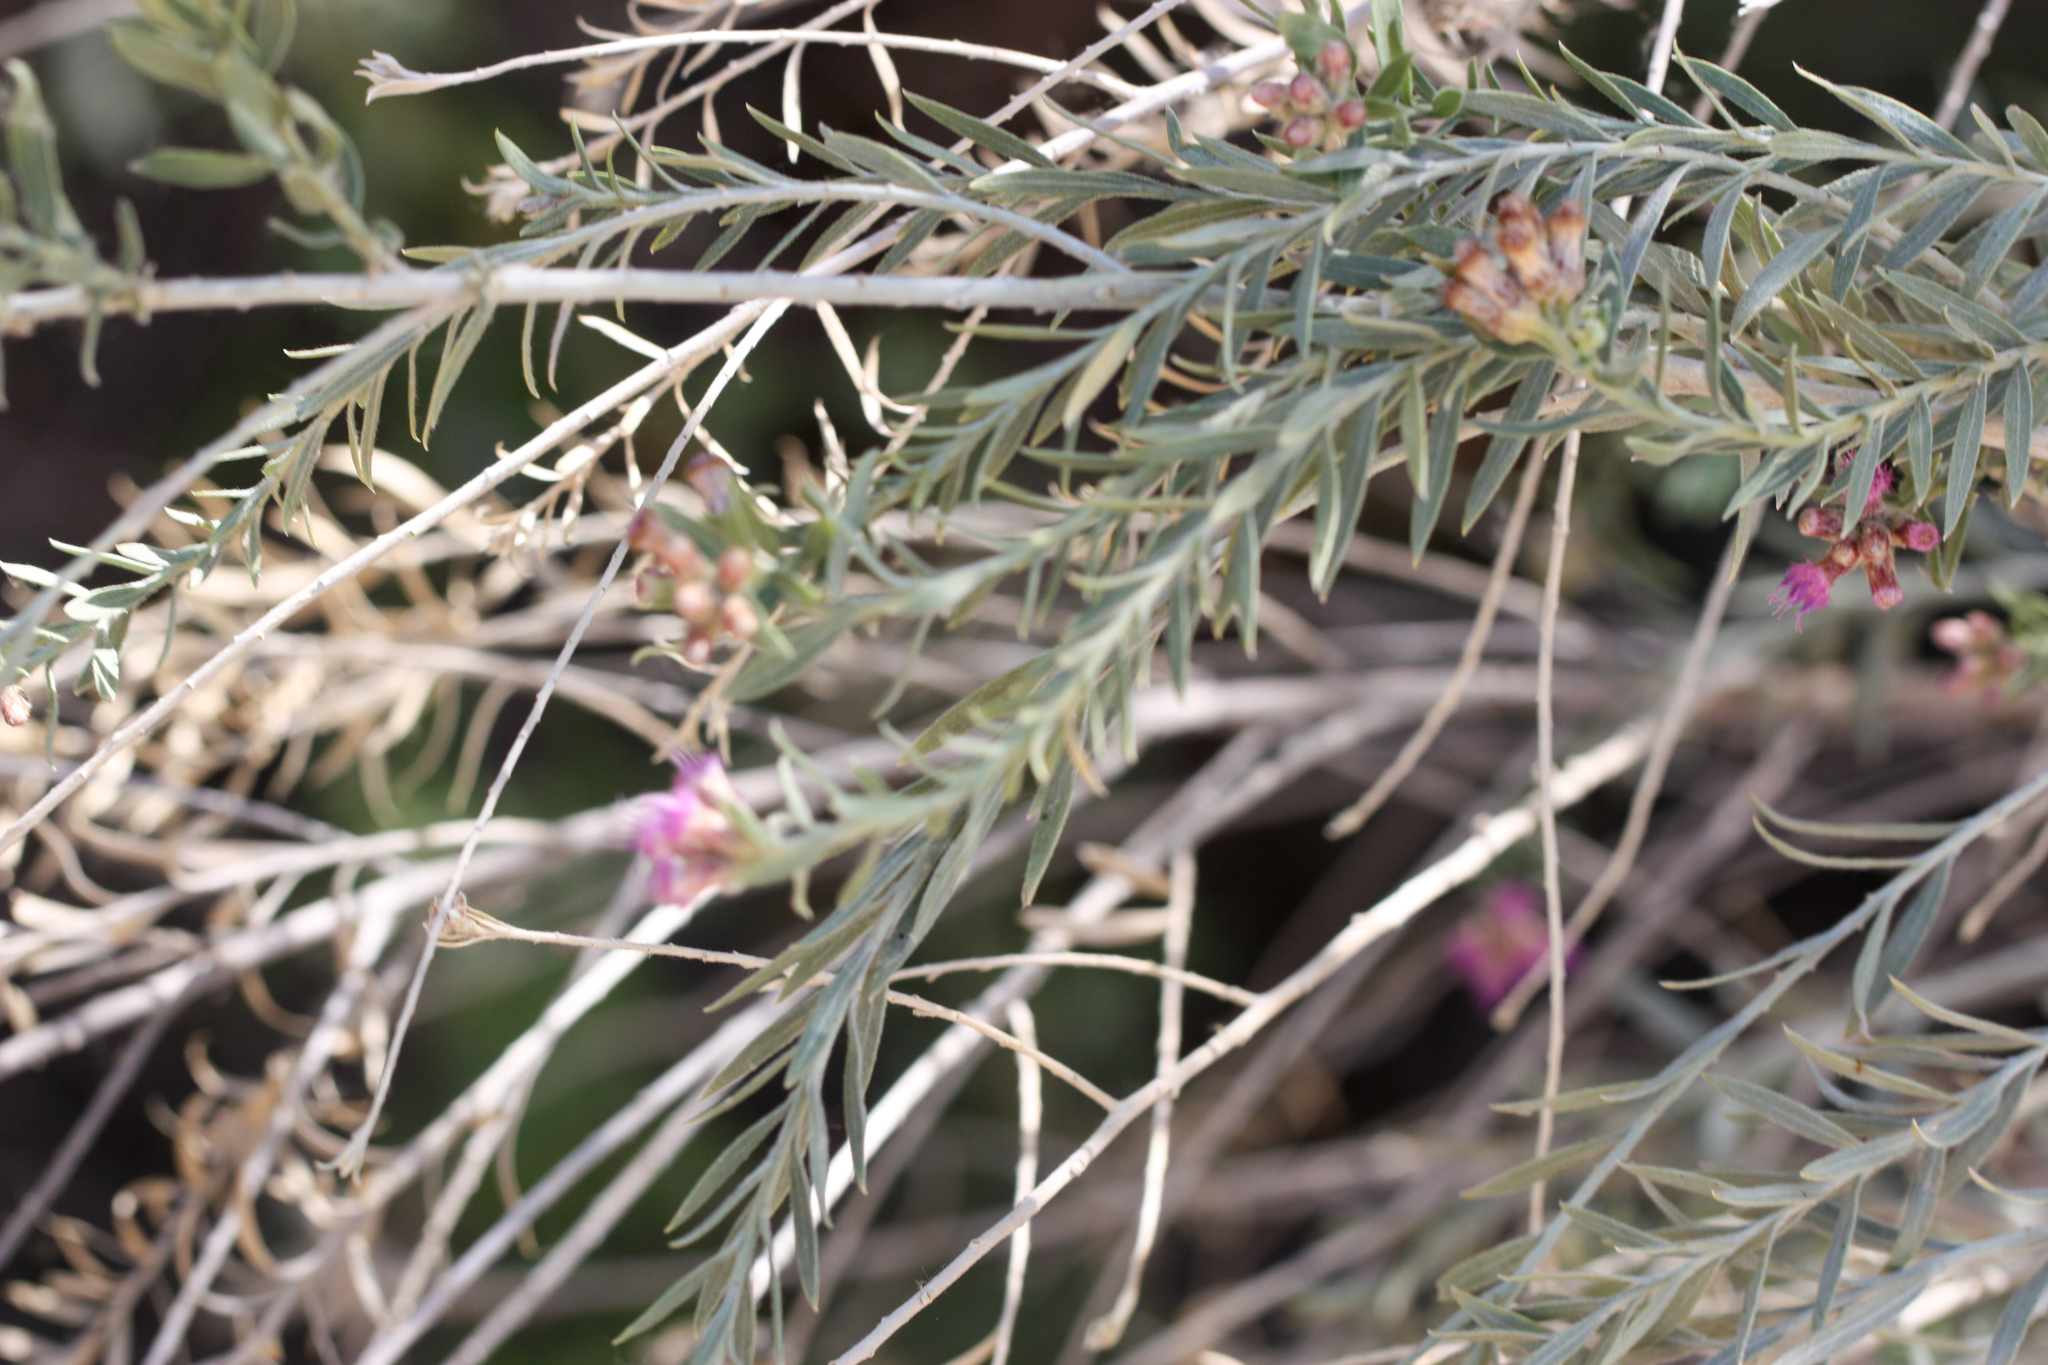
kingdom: Plantae
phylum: Tracheophyta
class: Magnoliopsida
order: Asterales
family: Asteraceae
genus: Pluchea
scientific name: Pluchea sericea
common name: Arrow-weed
